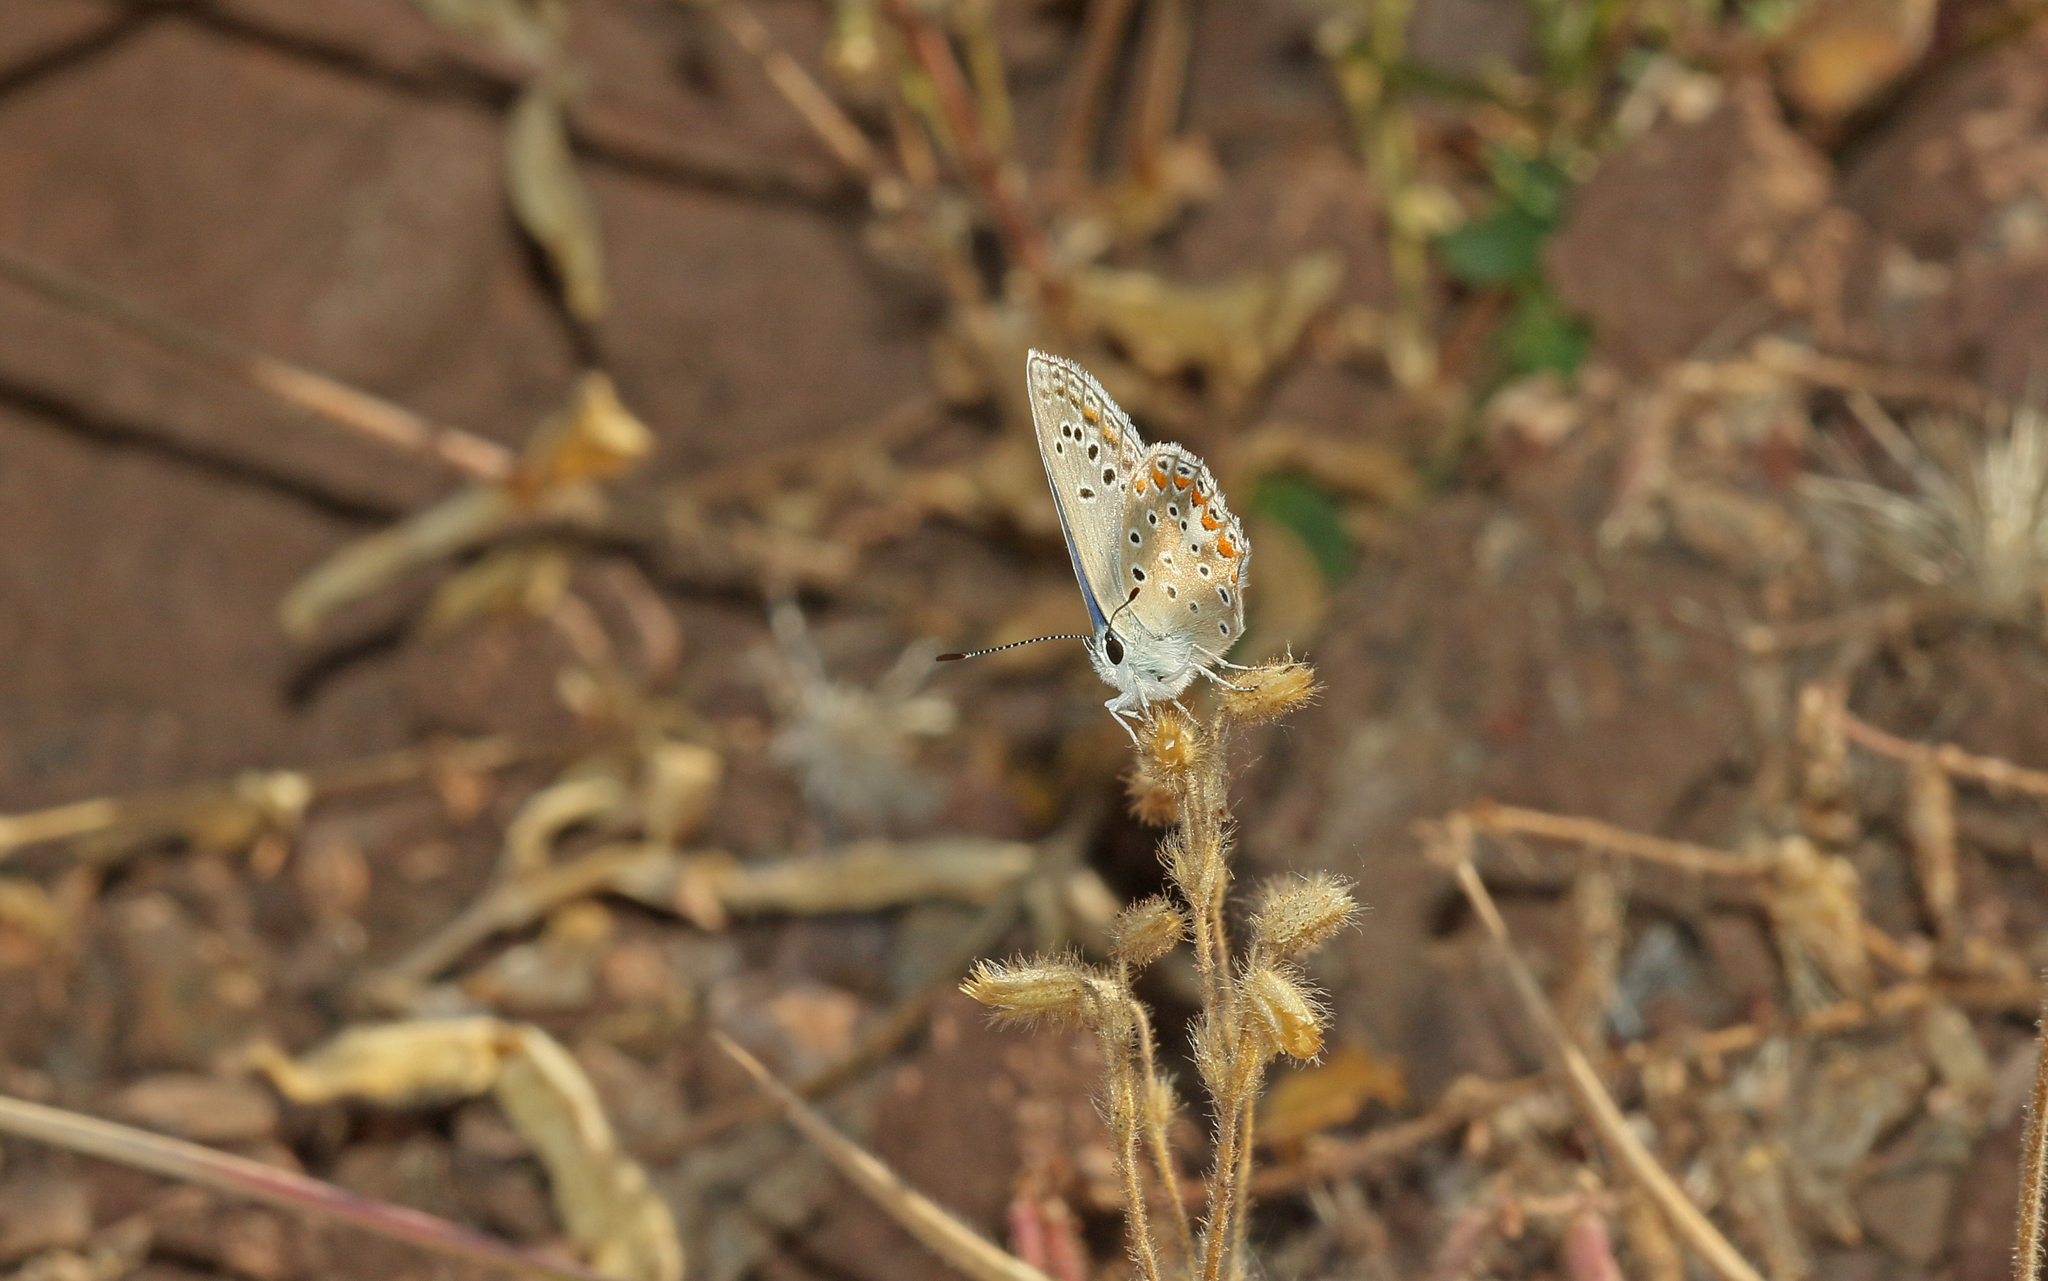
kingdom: Animalia
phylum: Arthropoda
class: Insecta
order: Lepidoptera
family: Lycaenidae
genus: Polyommatus
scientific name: Polyommatus thersites
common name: Chapman's blue
